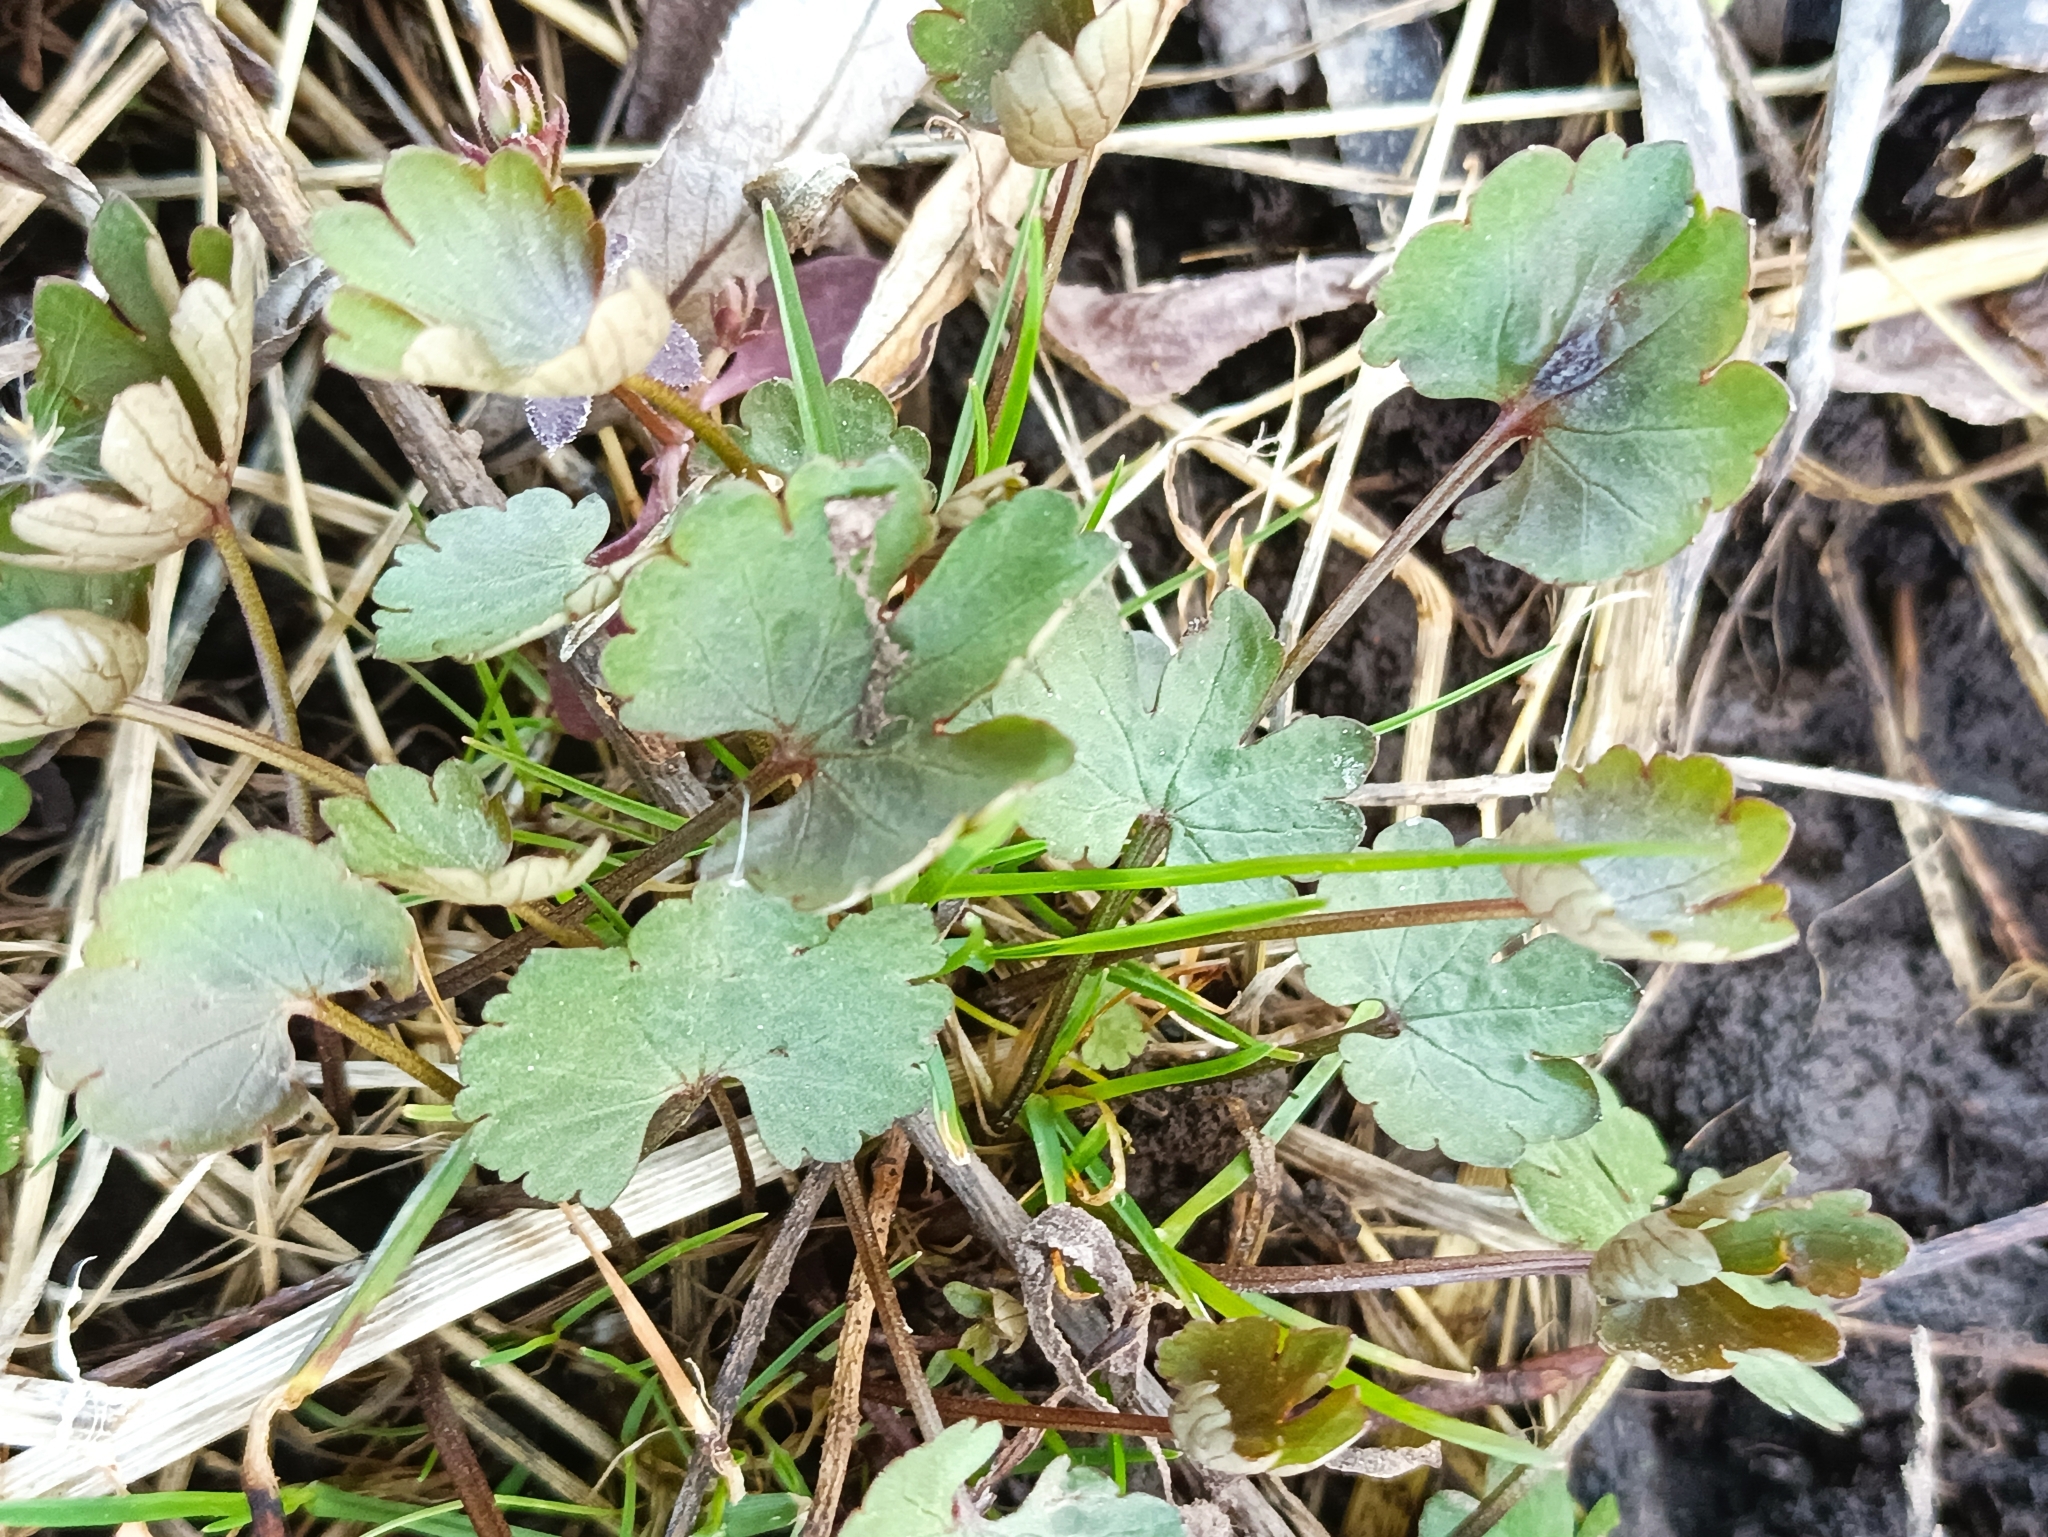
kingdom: Plantae
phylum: Tracheophyta
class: Magnoliopsida
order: Ranunculales
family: Ranunculaceae
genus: Ranunculus
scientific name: Ranunculus auricomus
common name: Goldilocks buttercup
